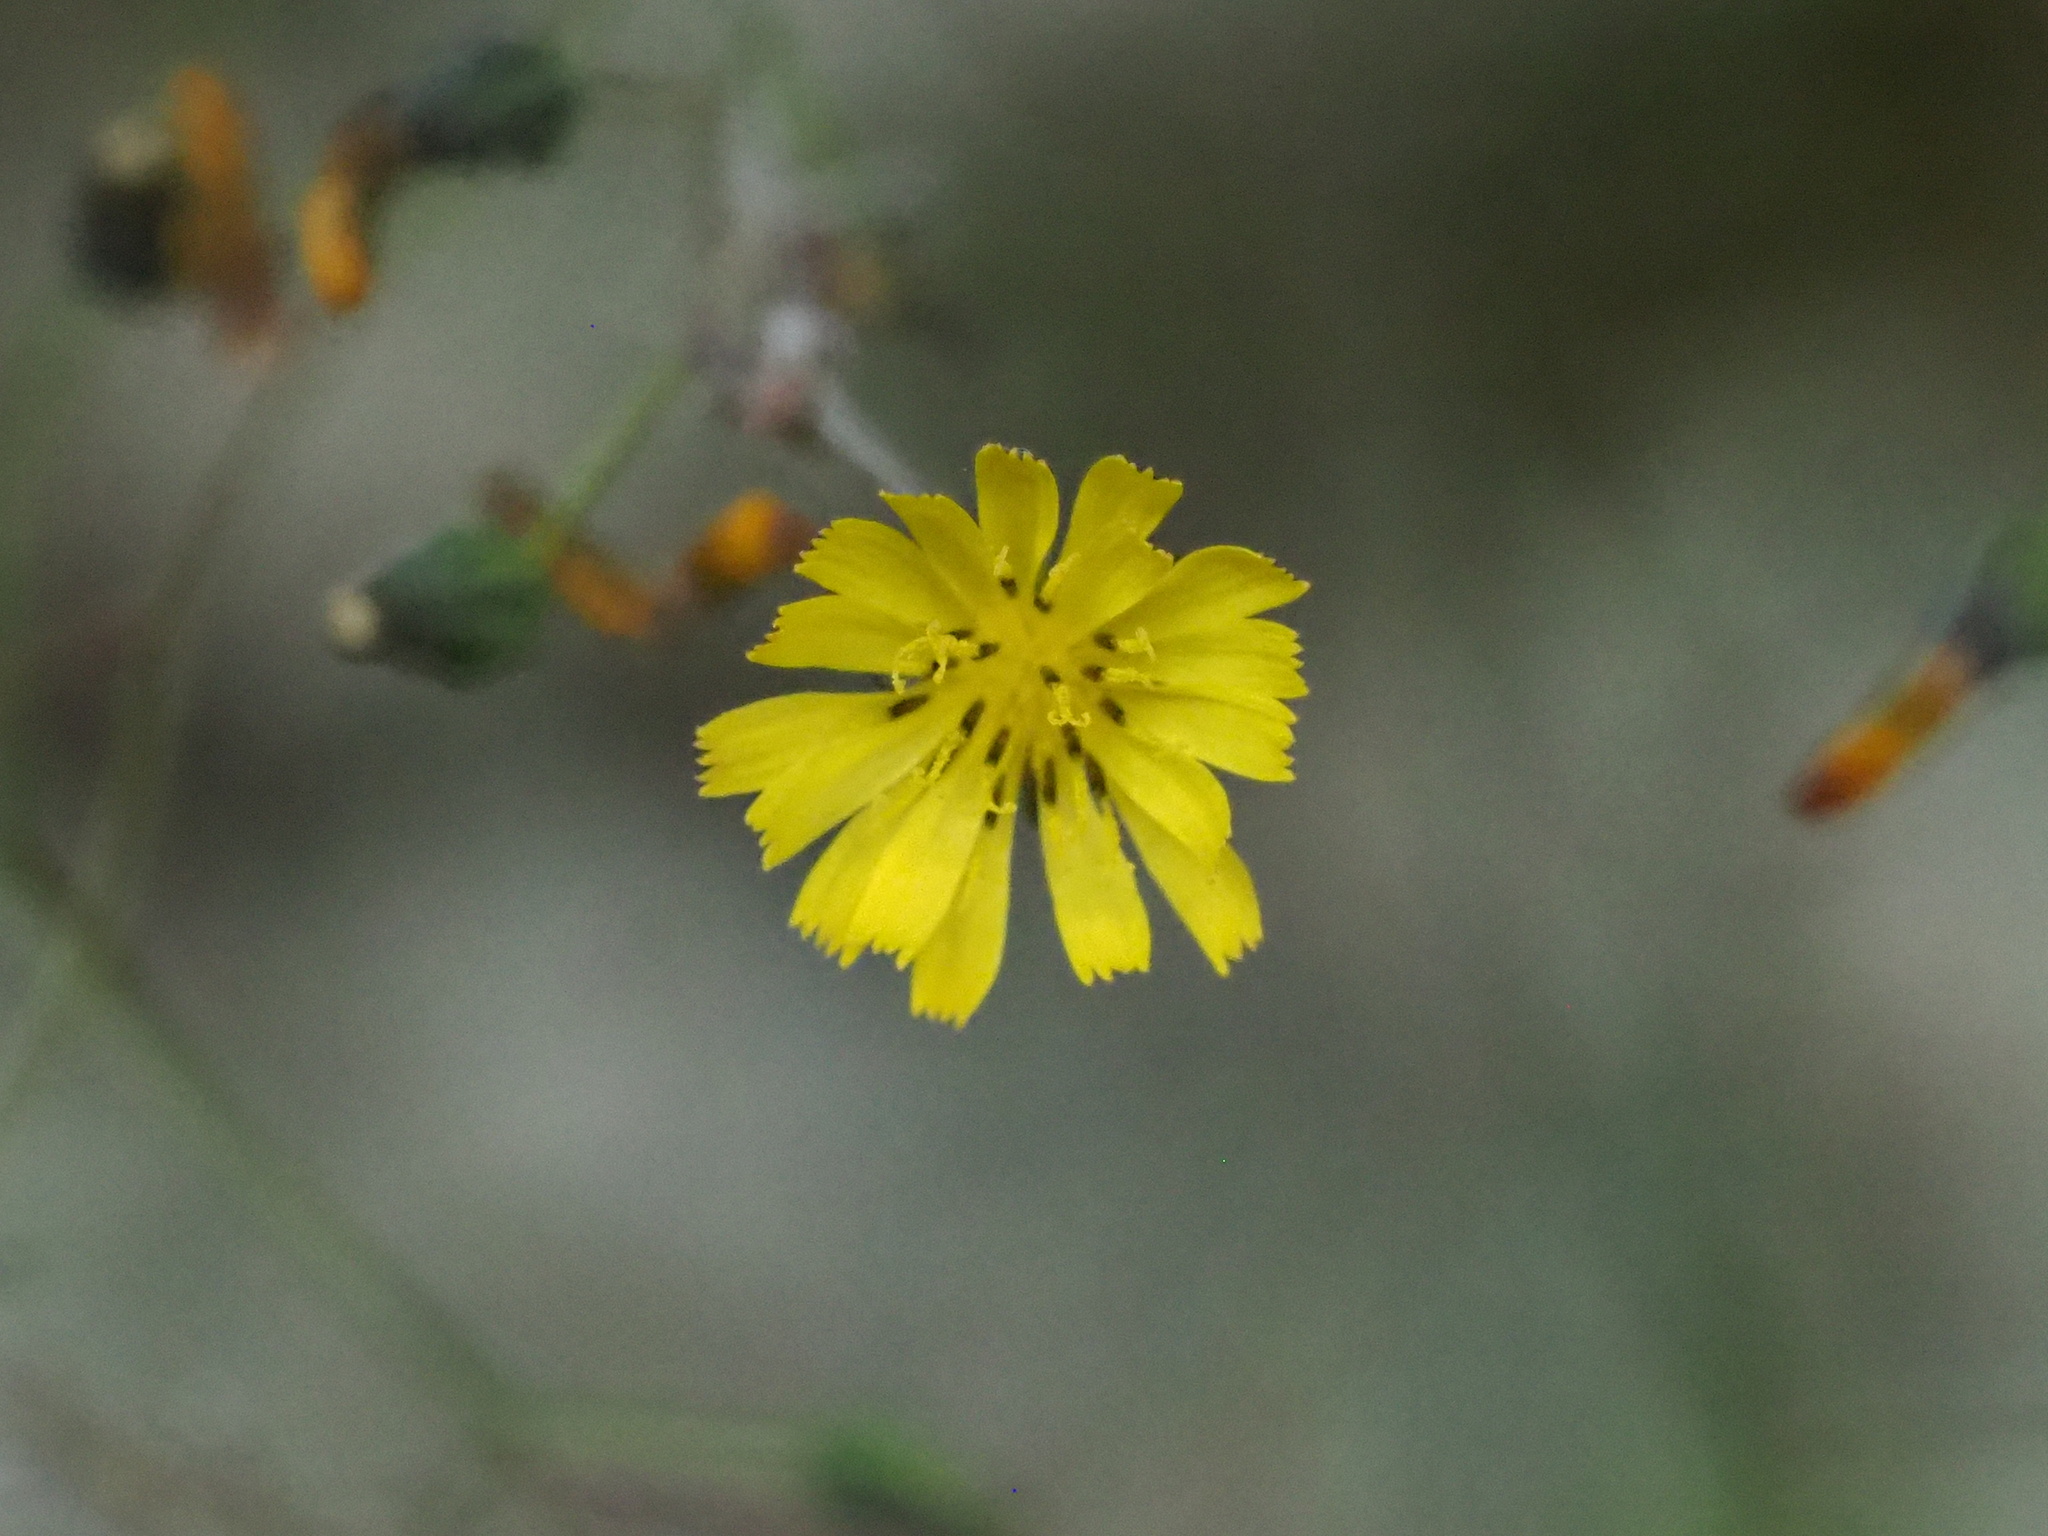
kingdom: Plantae
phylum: Tracheophyta
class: Magnoliopsida
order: Asterales
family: Asteraceae
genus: Youngia
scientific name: Youngia japonica
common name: Oriental false hawksbeard
